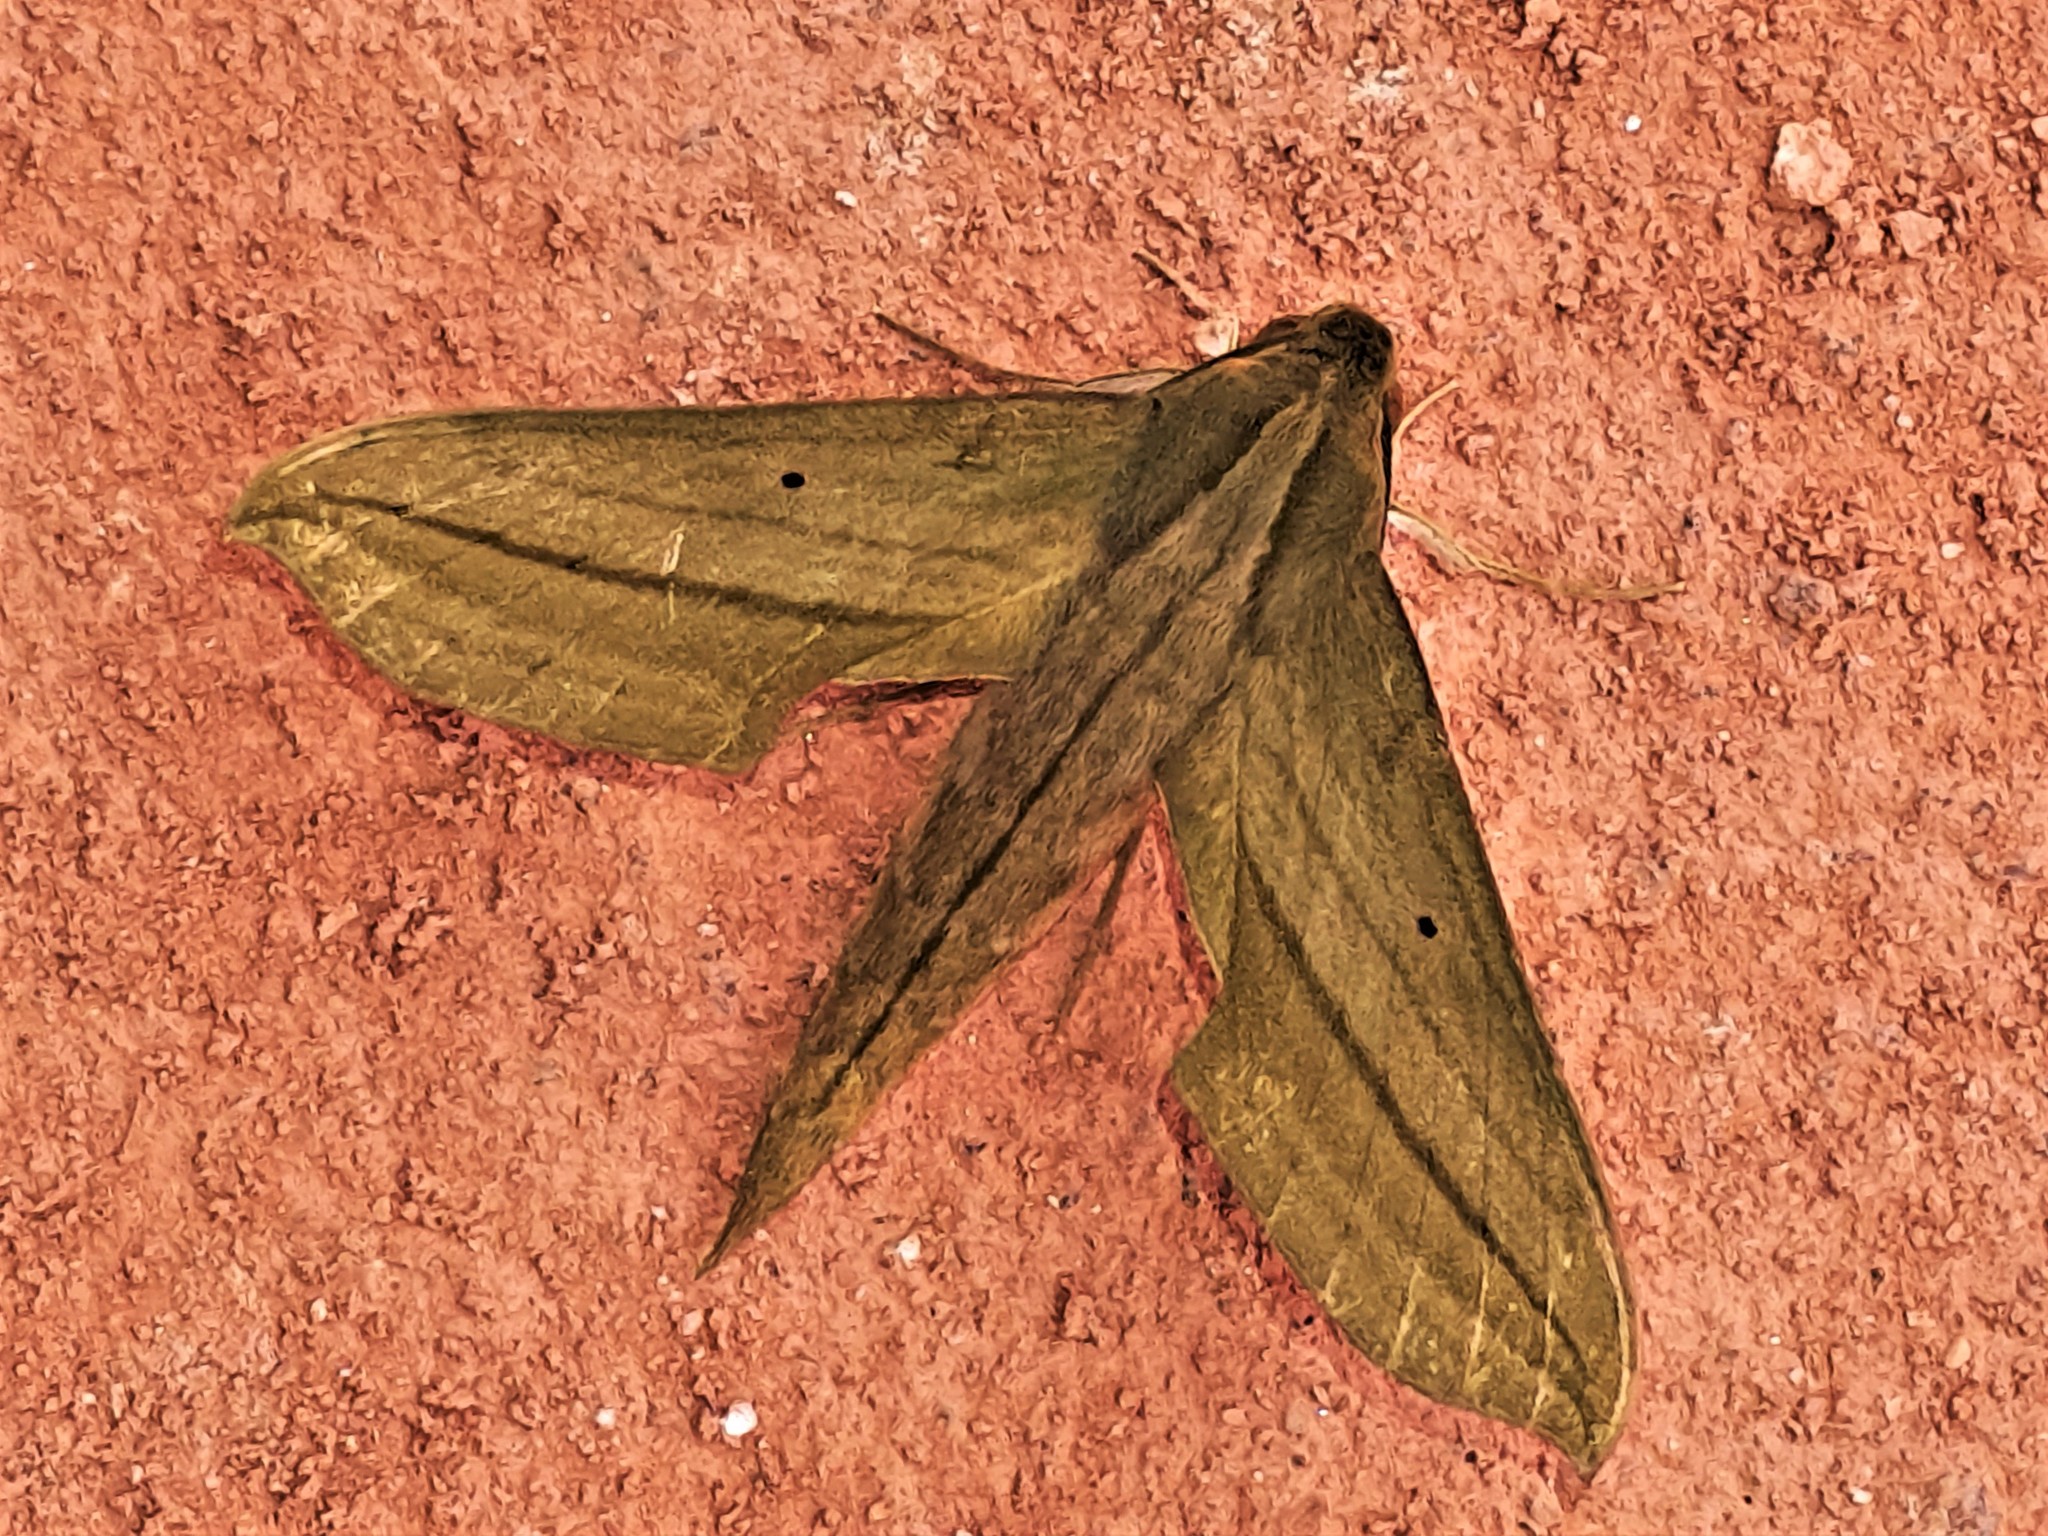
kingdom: Animalia
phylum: Arthropoda
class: Insecta
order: Lepidoptera
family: Sphingidae
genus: Xylophanes
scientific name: Xylophanes elara
